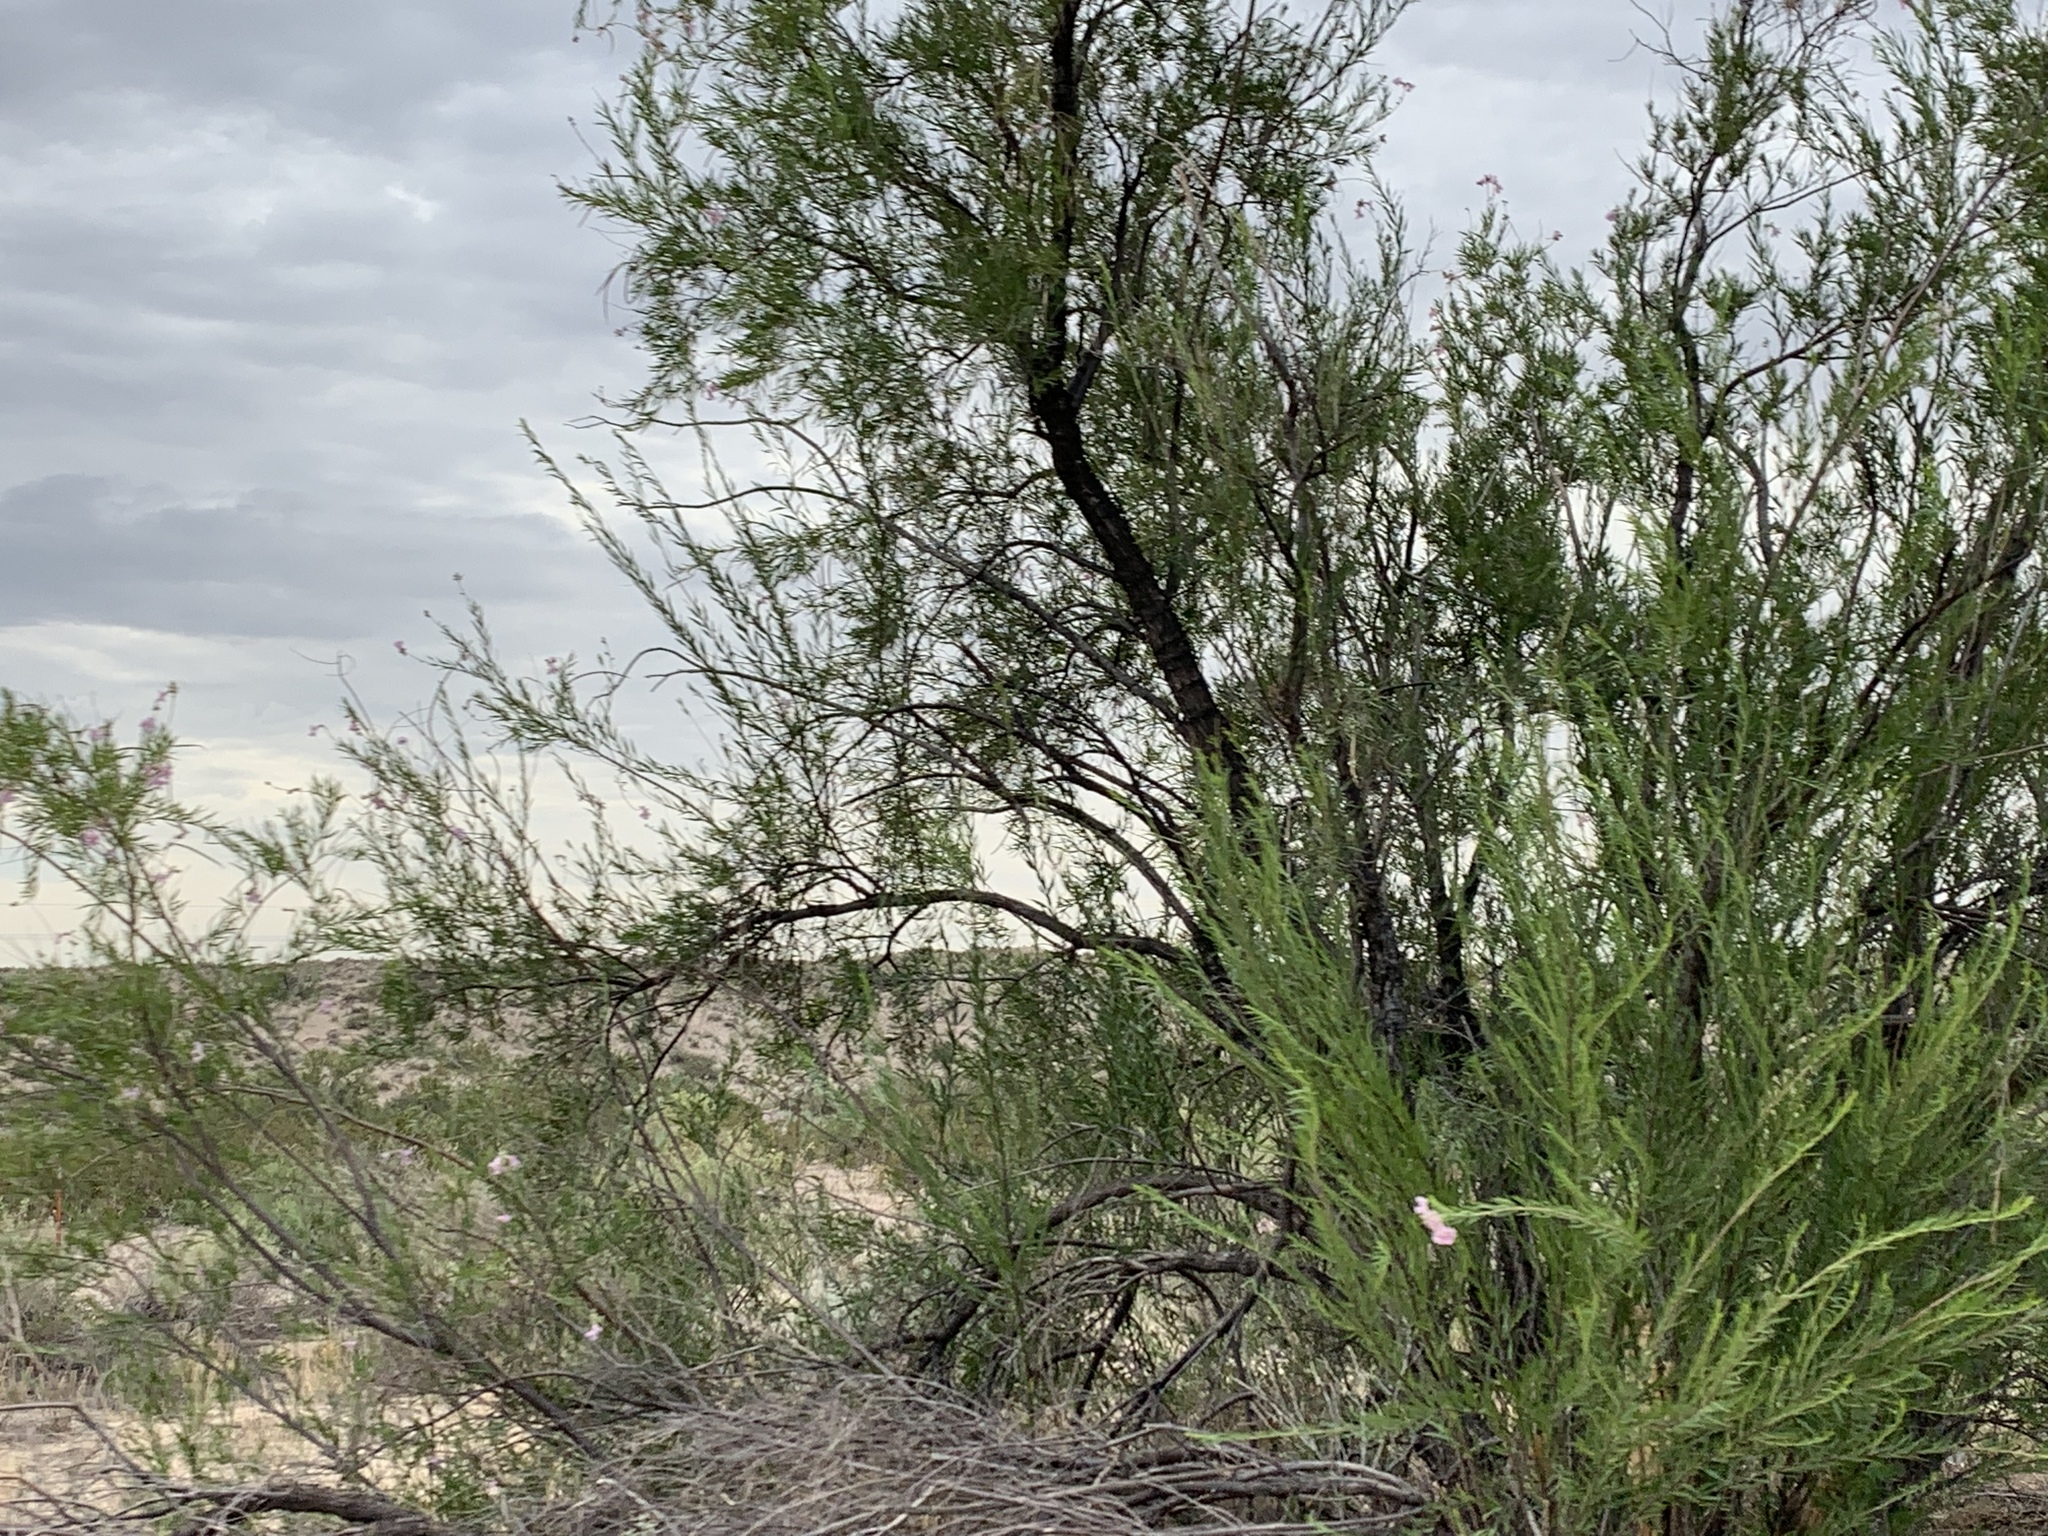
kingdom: Plantae
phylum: Tracheophyta
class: Magnoliopsida
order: Lamiales
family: Bignoniaceae
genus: Chilopsis
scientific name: Chilopsis linearis
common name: Desert-willow
